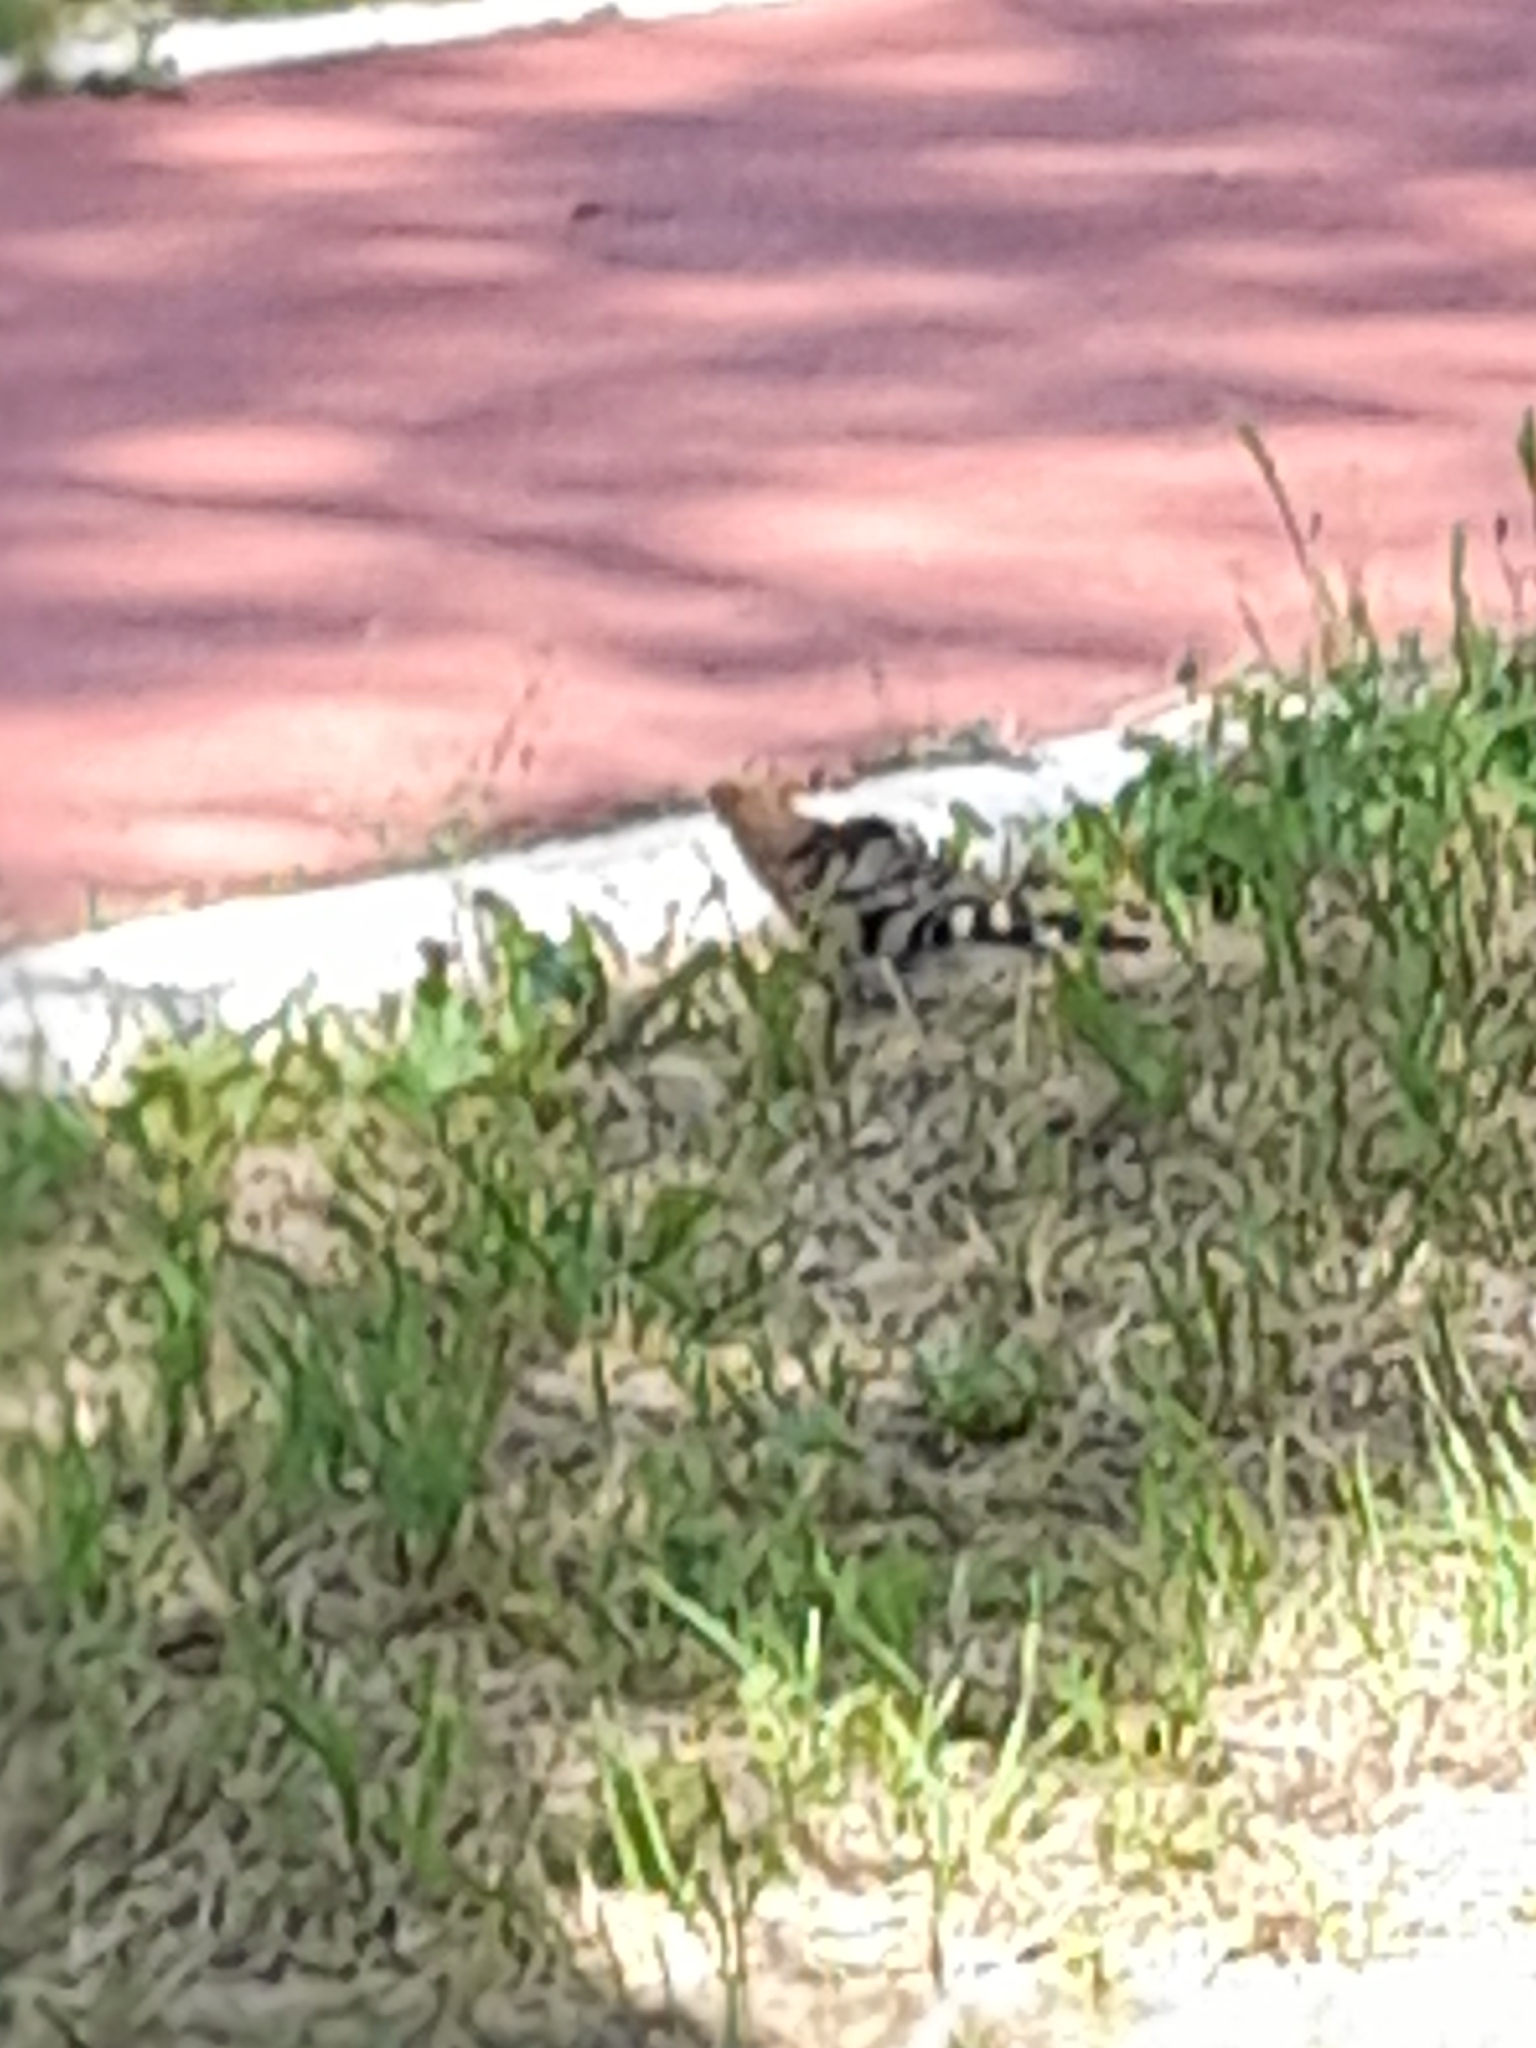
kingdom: Animalia
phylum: Chordata
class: Aves
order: Bucerotiformes
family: Upupidae
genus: Upupa
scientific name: Upupa epops
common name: Eurasian hoopoe
